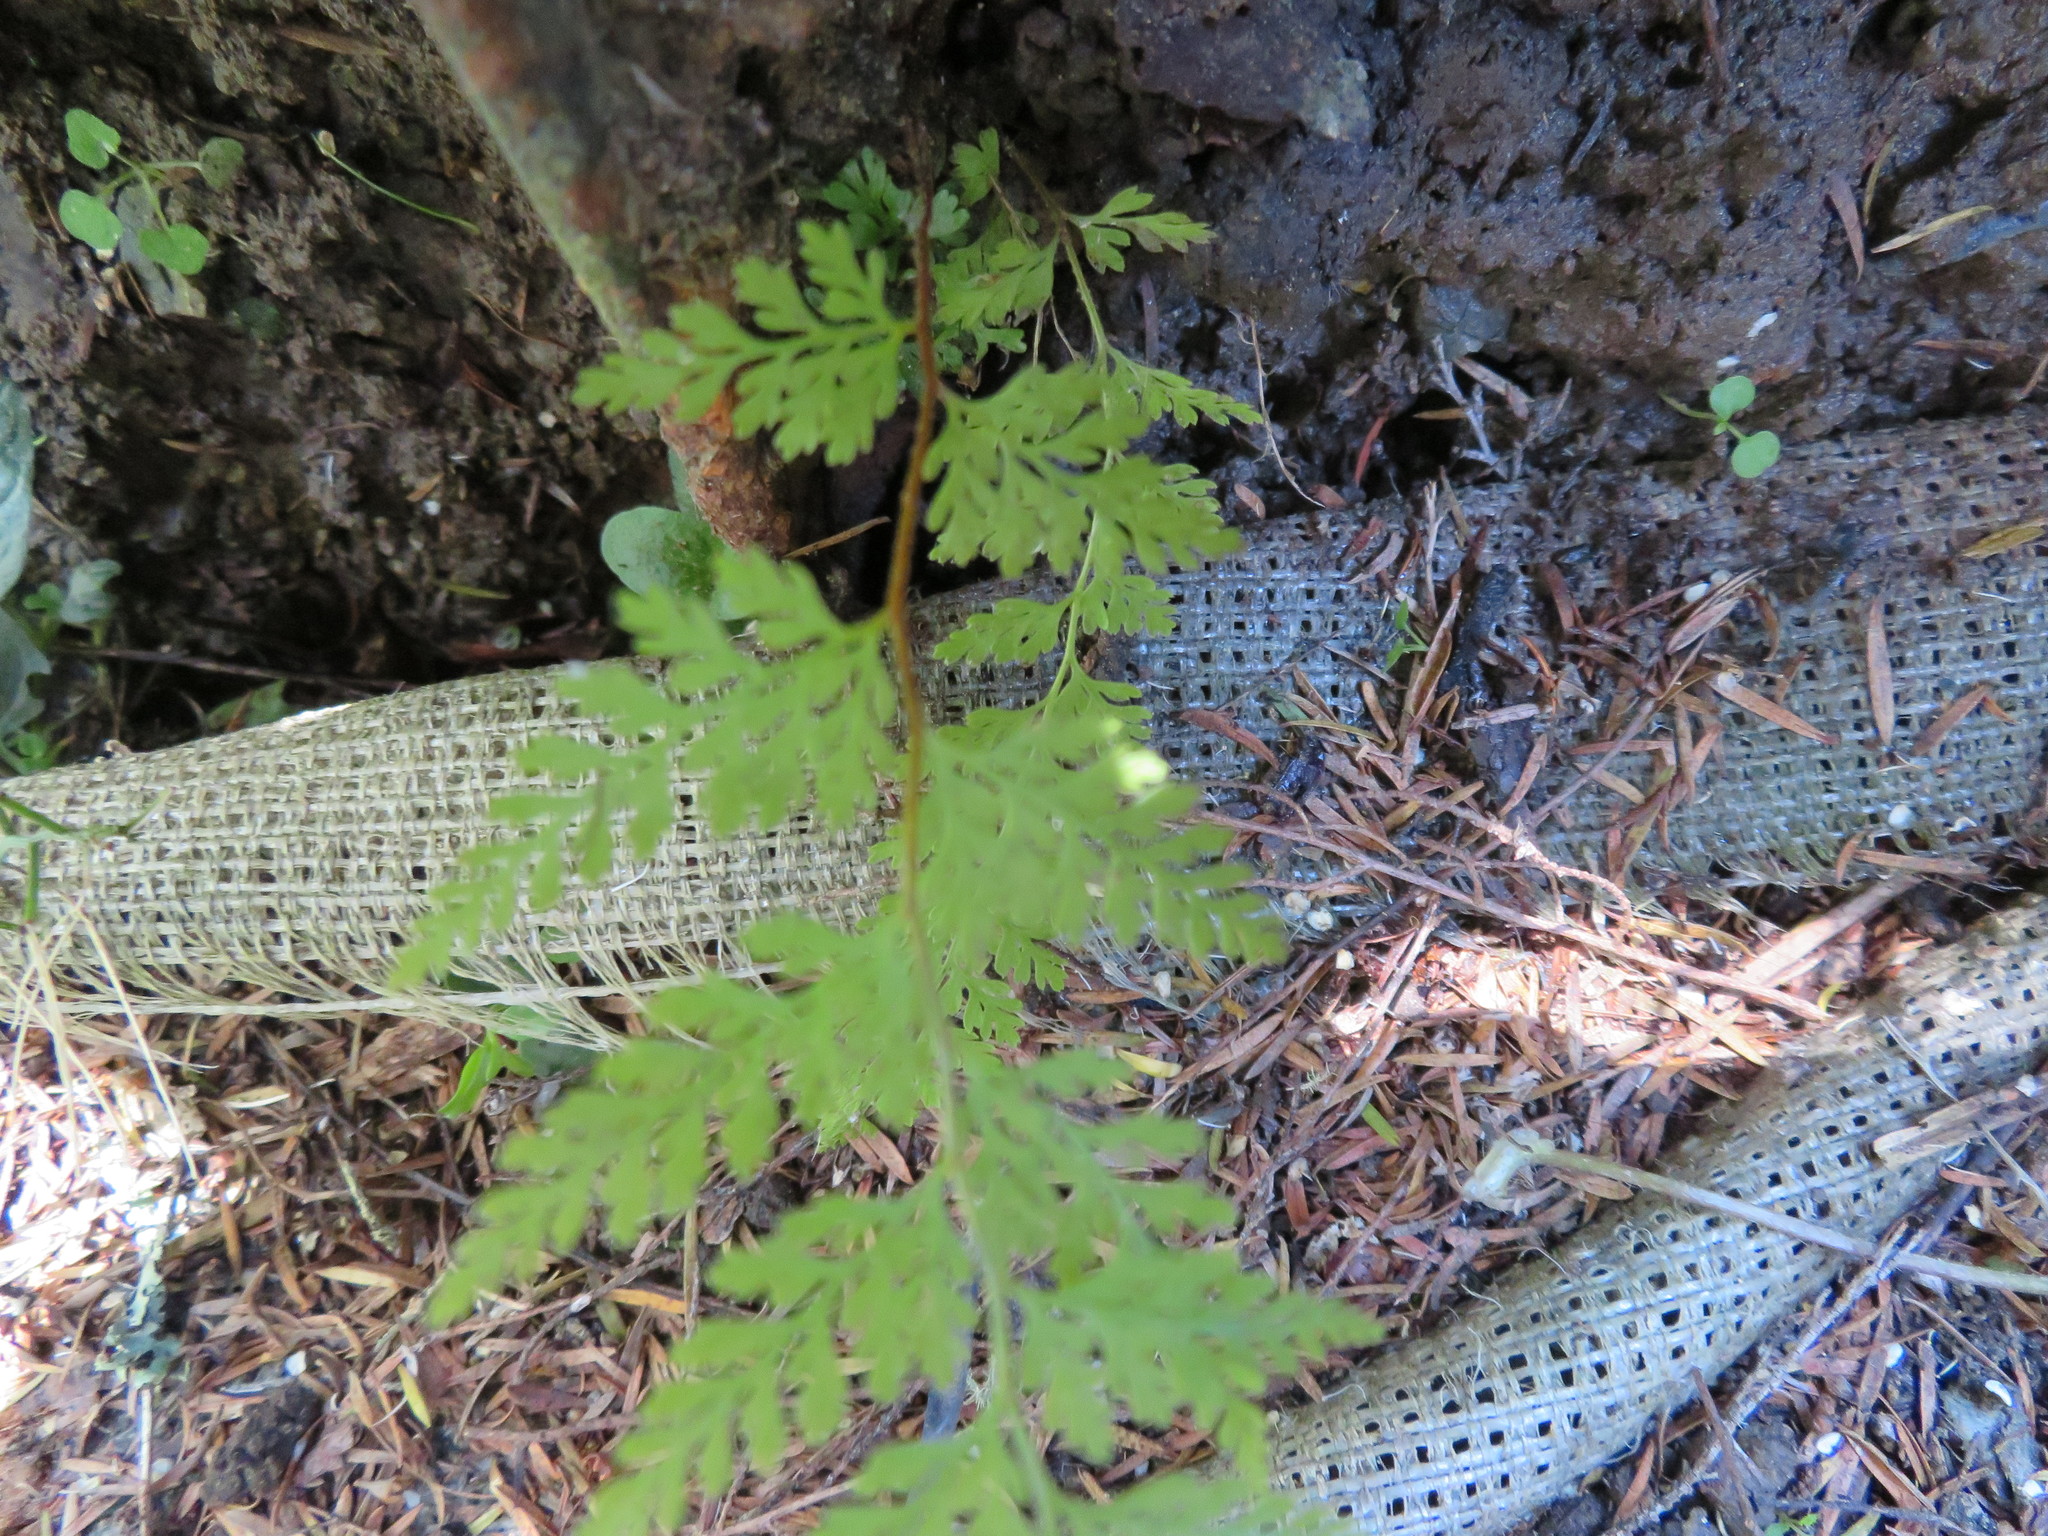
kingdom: Plantae
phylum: Tracheophyta
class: Polypodiopsida
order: Polypodiales
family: Dennstaedtiaceae
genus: Paesia
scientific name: Paesia scaberula
